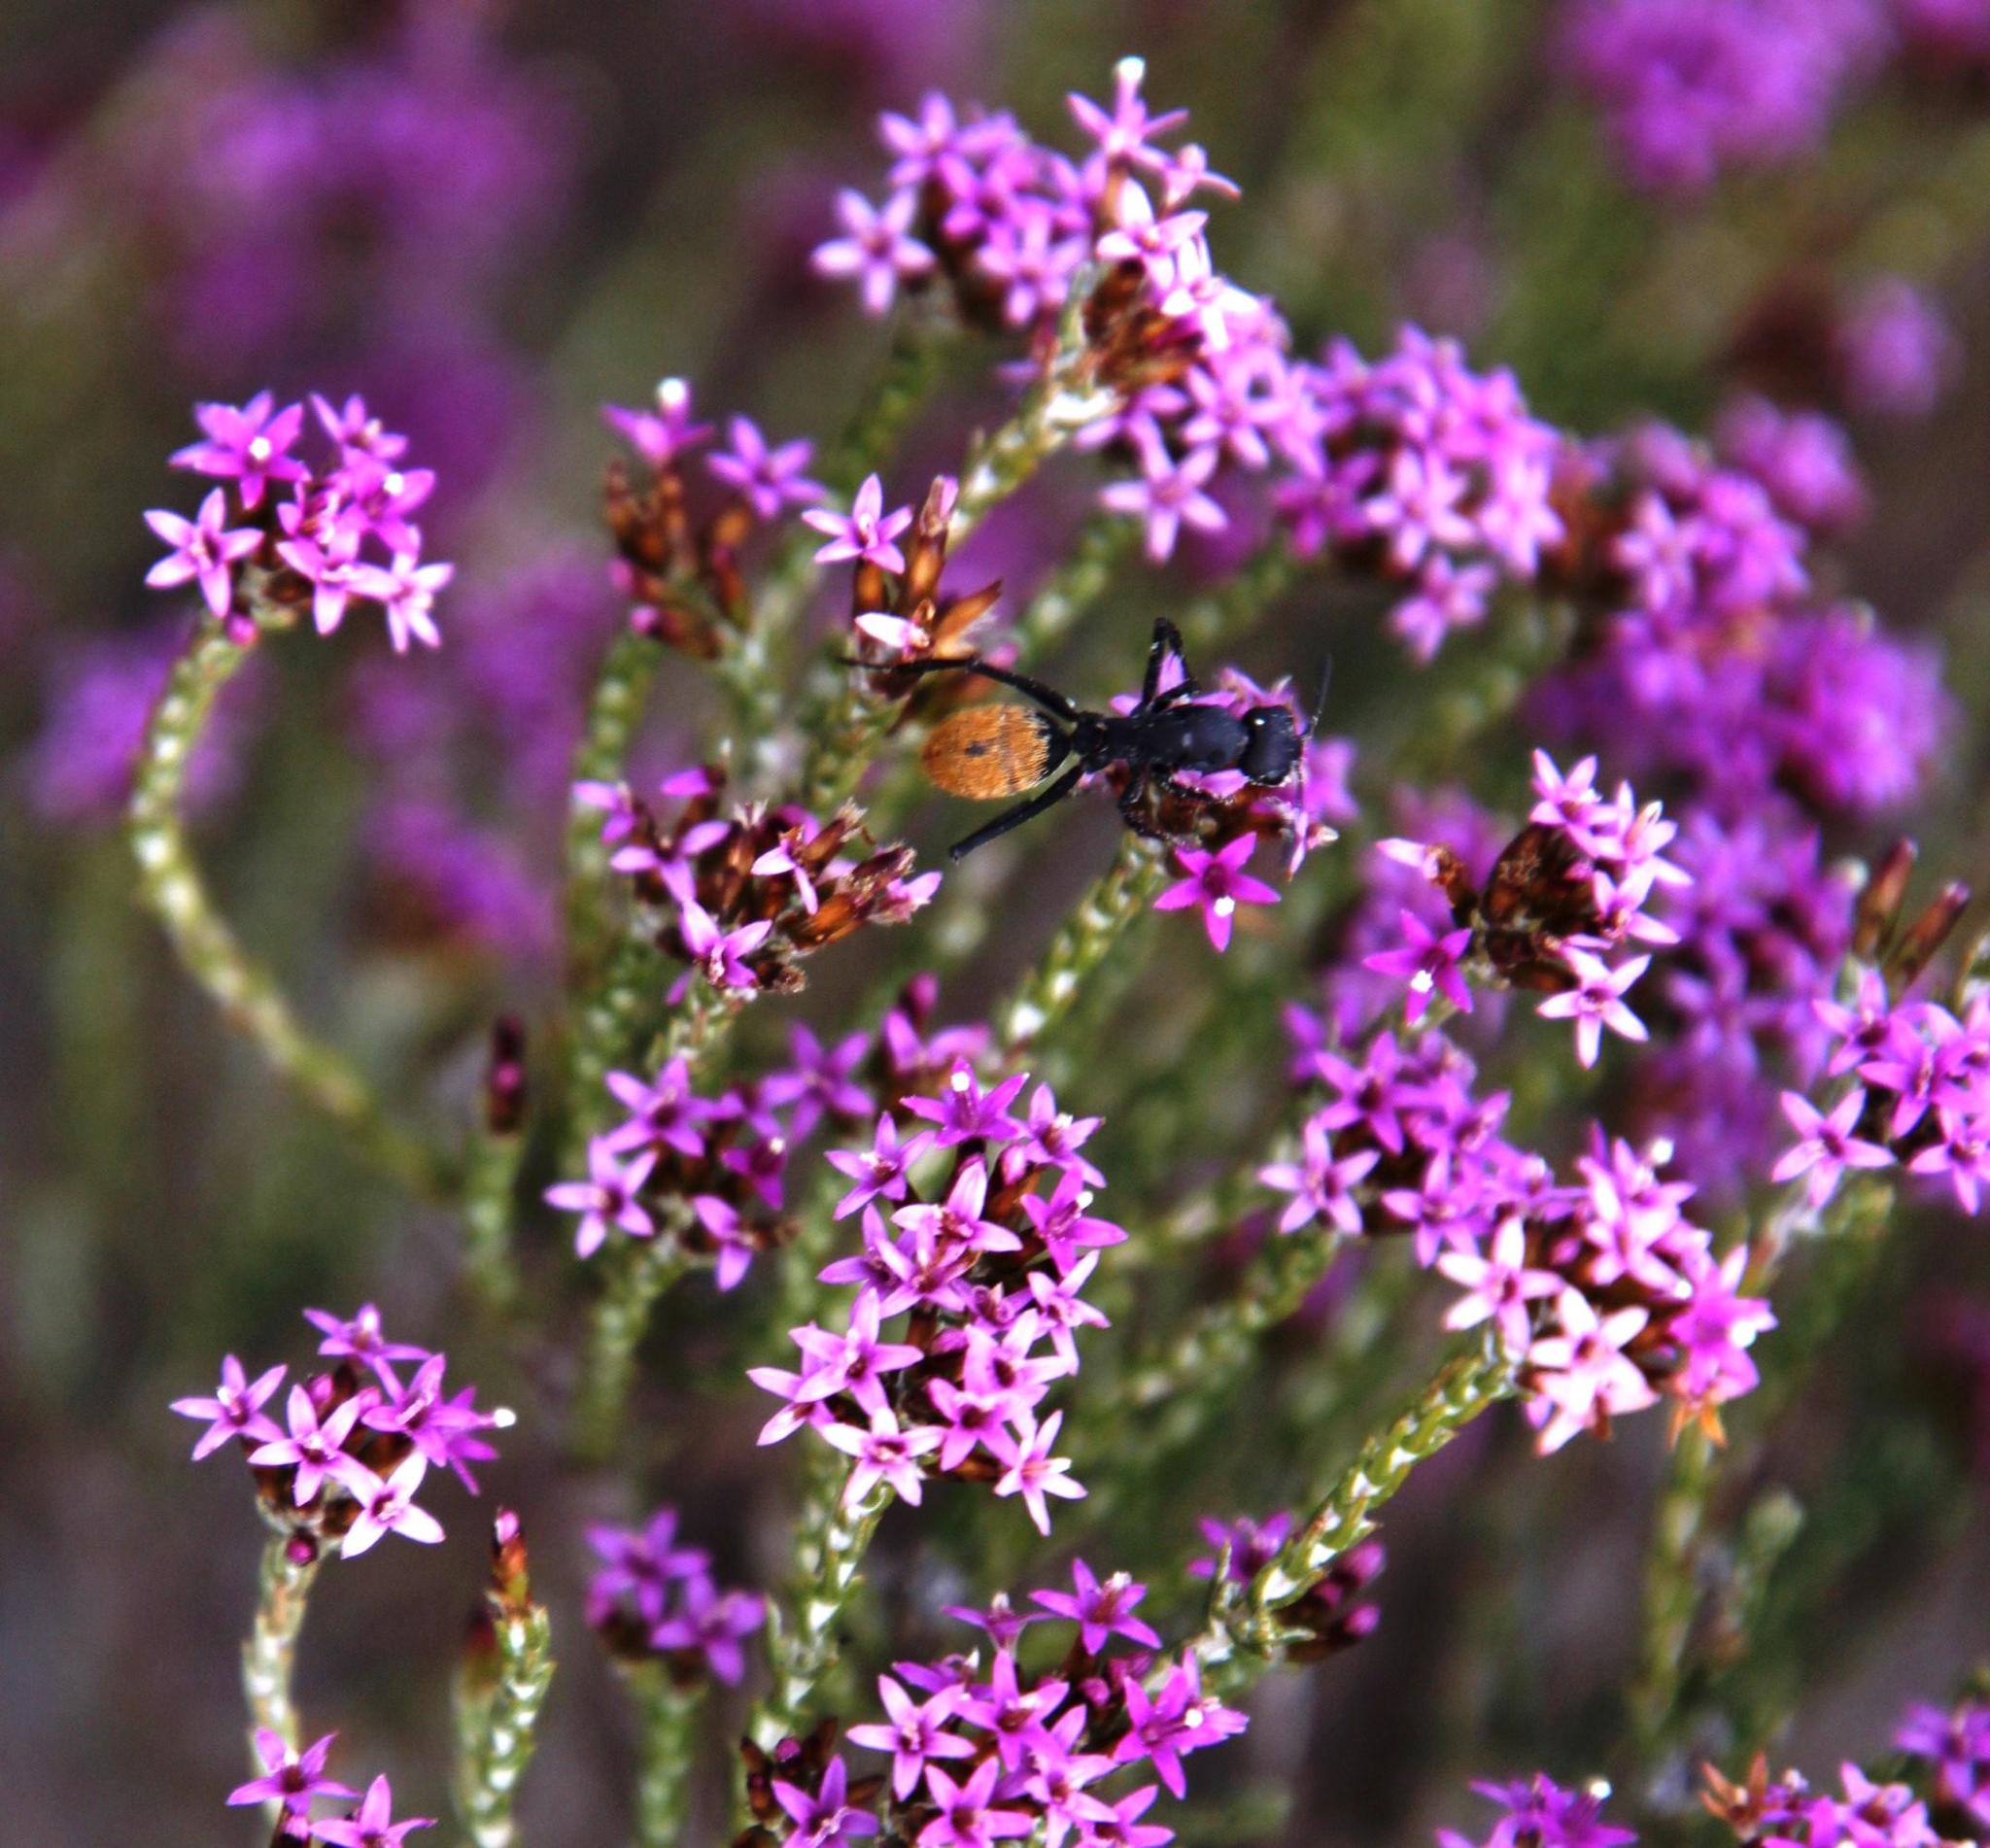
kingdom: Plantae
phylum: Tracheophyta
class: Magnoliopsida
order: Asterales
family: Asteraceae
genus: Stoebe
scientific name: Stoebe rugulosa
